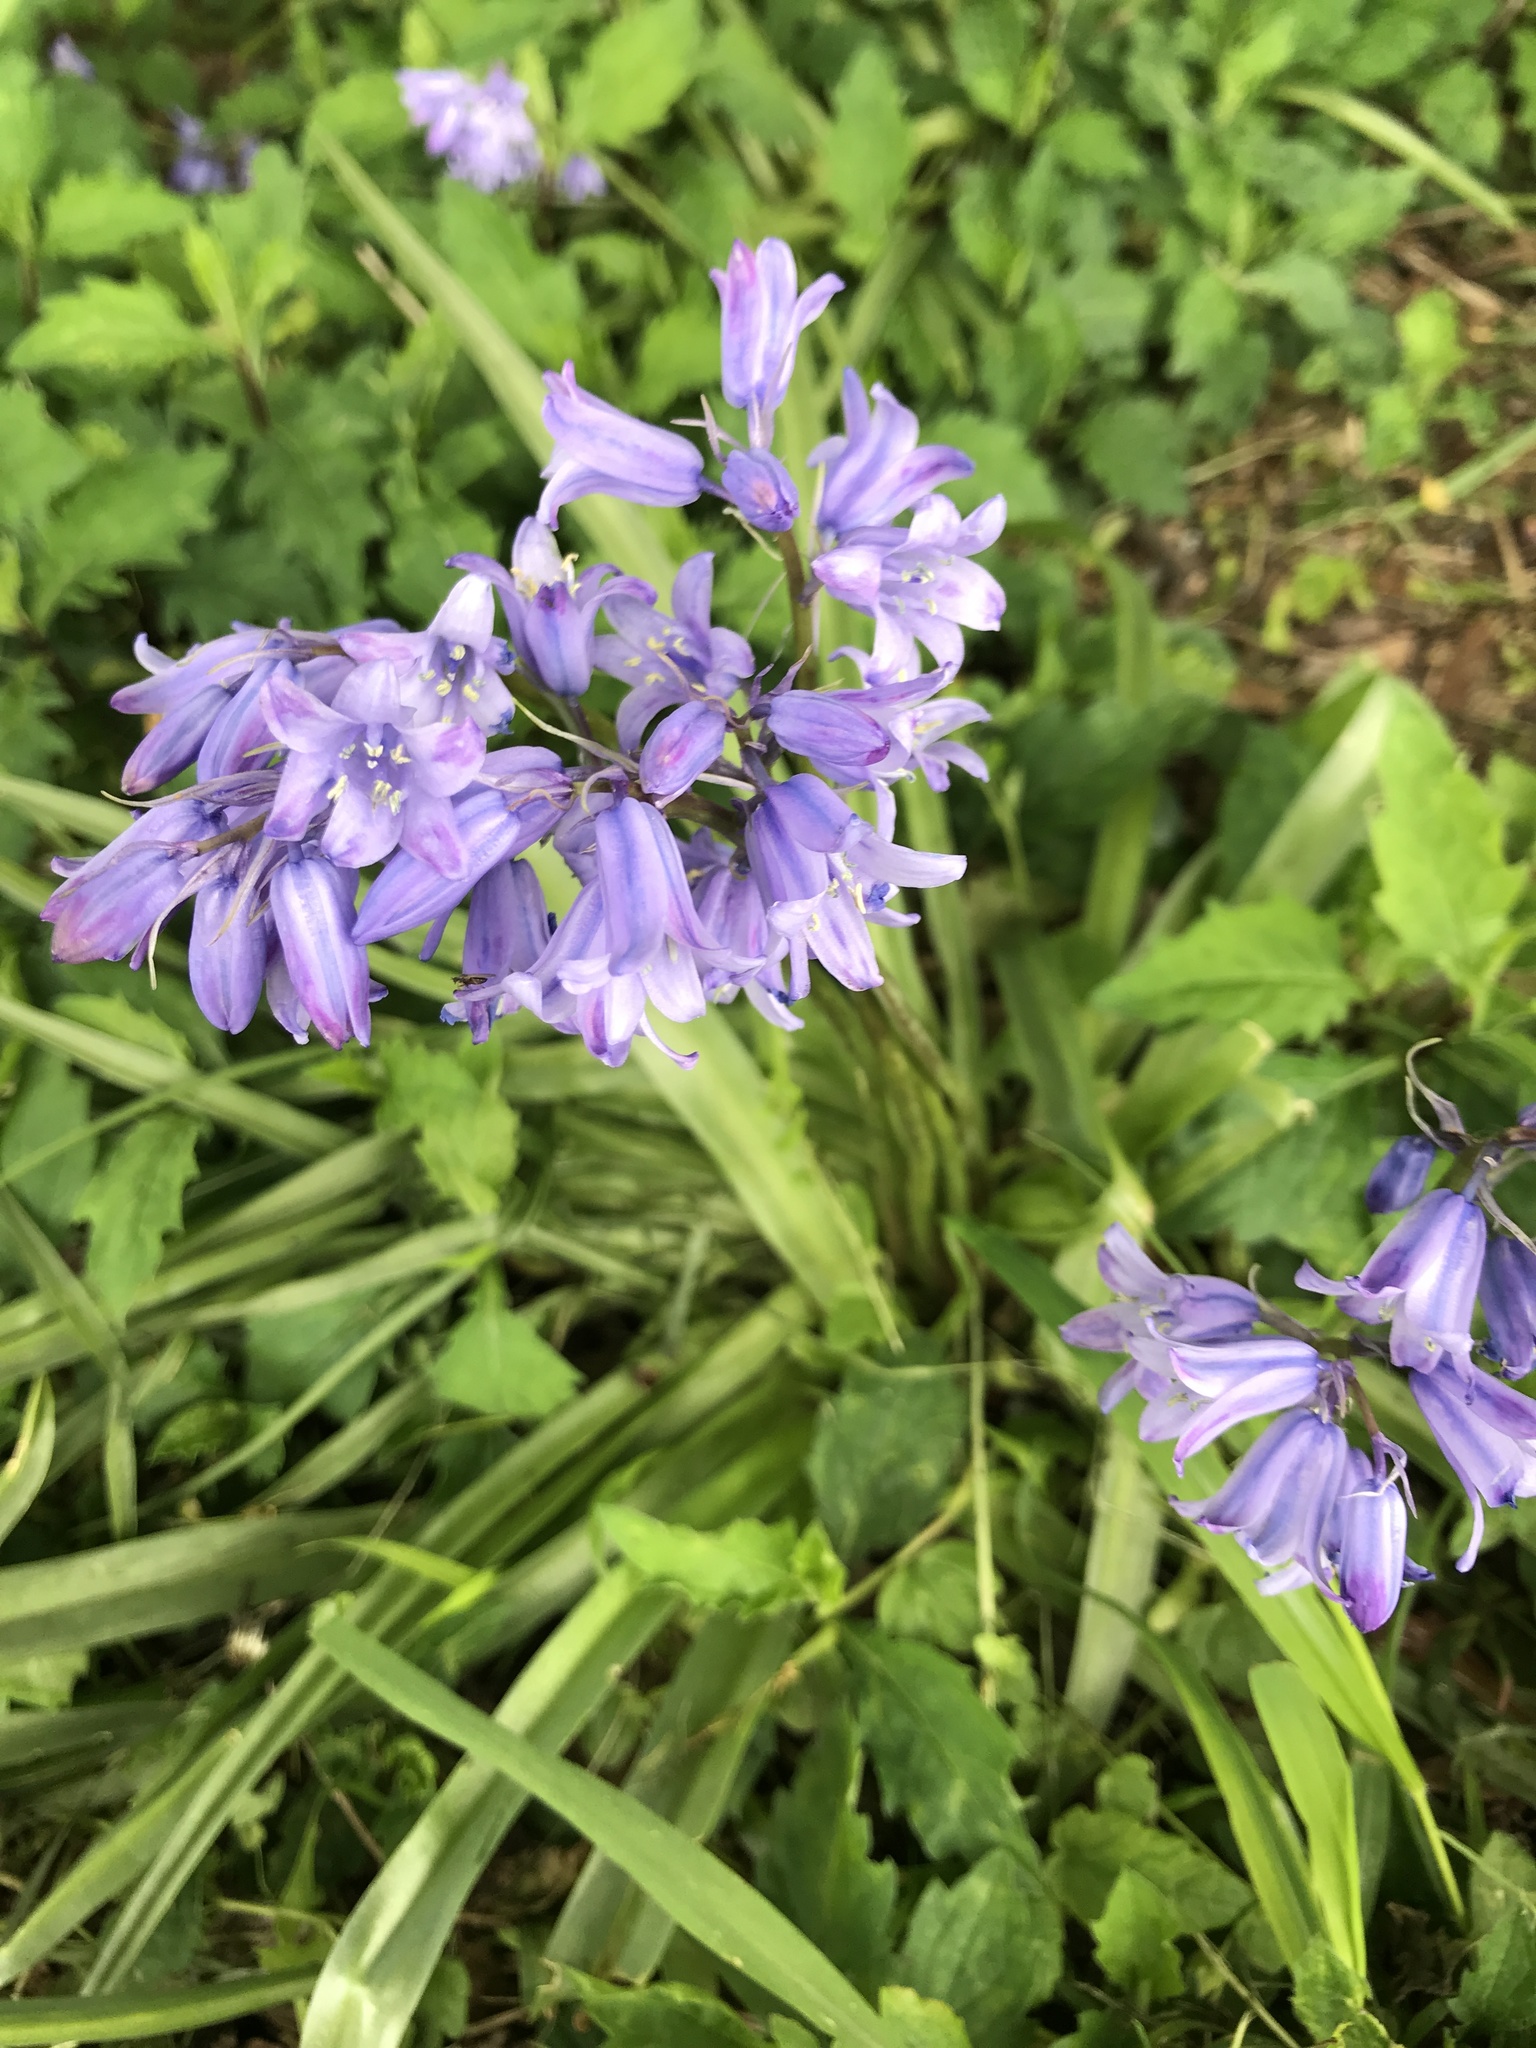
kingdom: Plantae
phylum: Tracheophyta
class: Liliopsida
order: Asparagales
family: Asparagaceae
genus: Hyacinthoides
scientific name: Hyacinthoides massartiana
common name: Hyacinthoides
